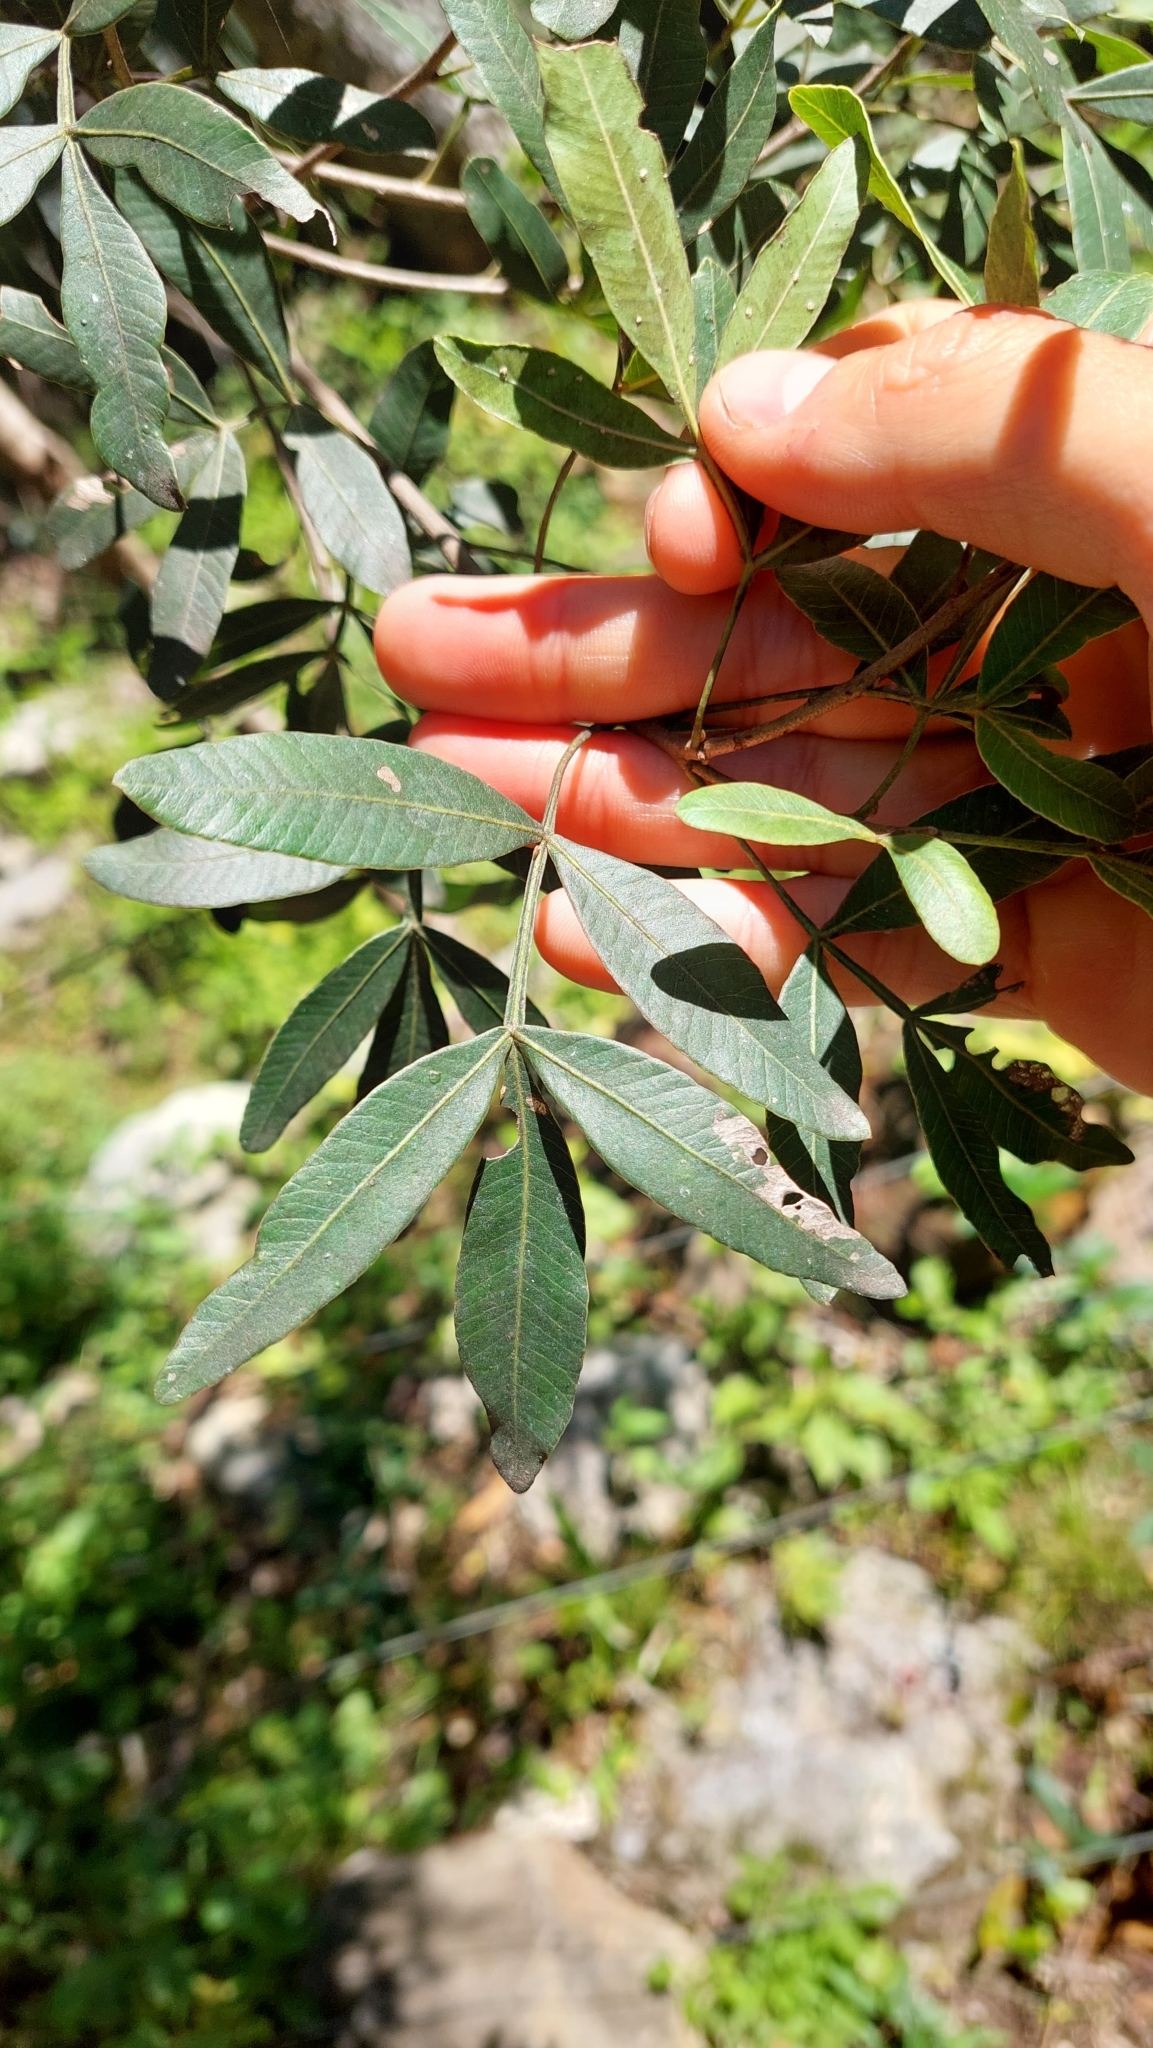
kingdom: Plantae
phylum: Tracheophyta
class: Magnoliopsida
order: Sapindales
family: Anacardiaceae
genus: Lithraea
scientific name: Lithraea molleoides
